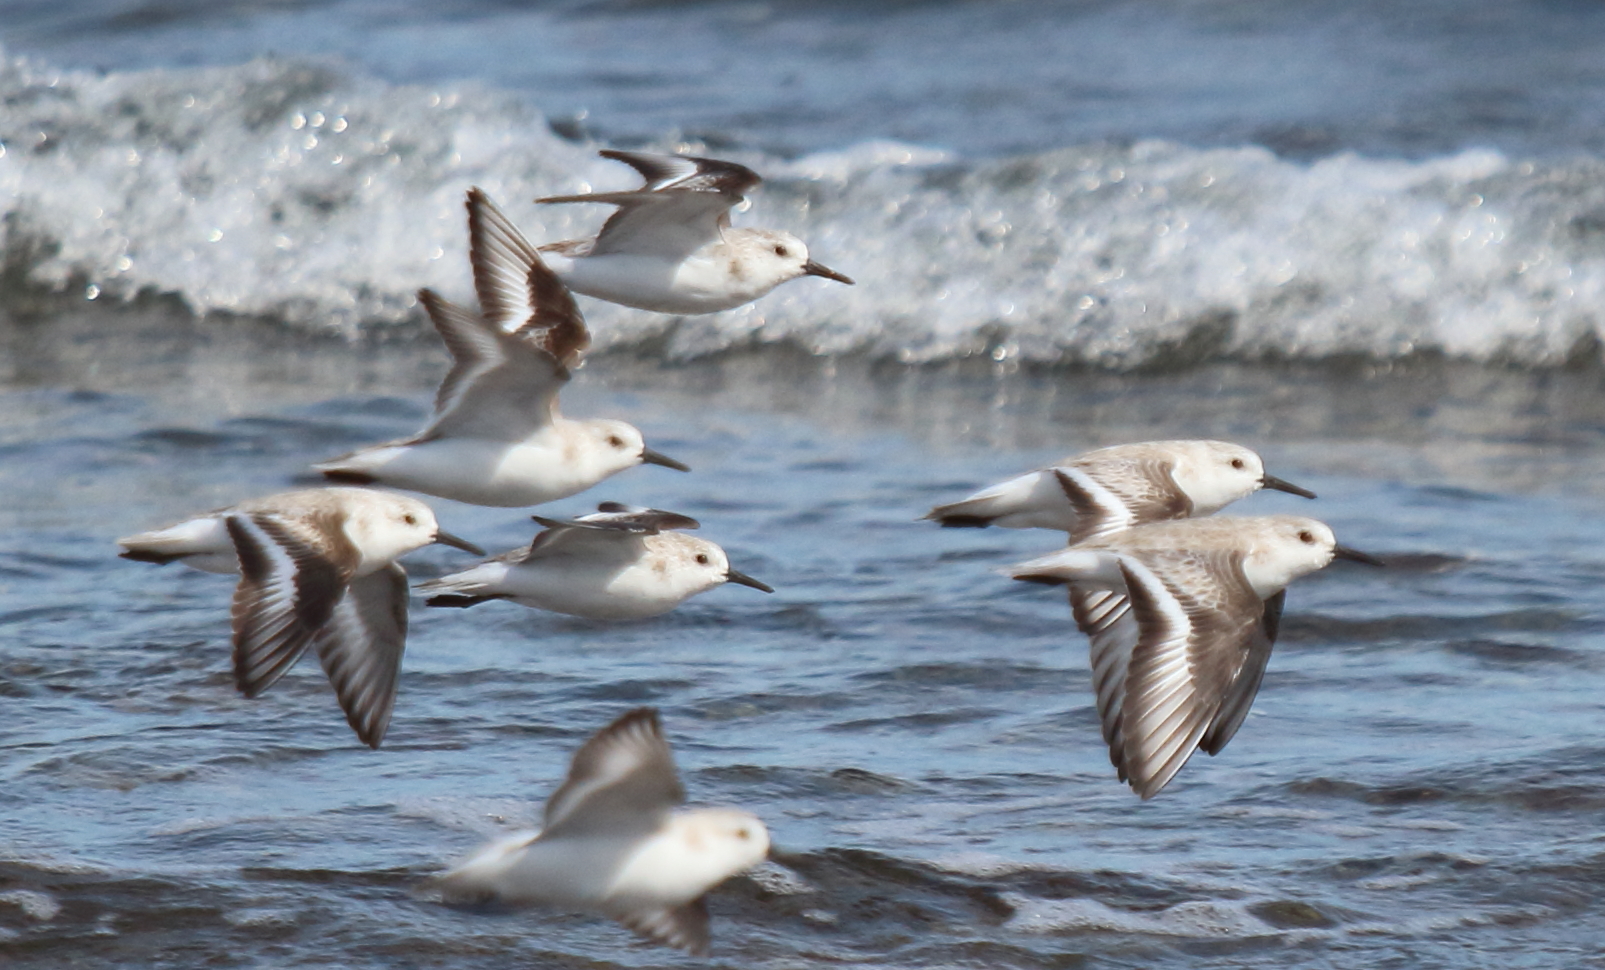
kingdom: Animalia
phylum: Chordata
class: Aves
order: Charadriiformes
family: Scolopacidae
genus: Calidris
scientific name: Calidris alba
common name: Sanderling
